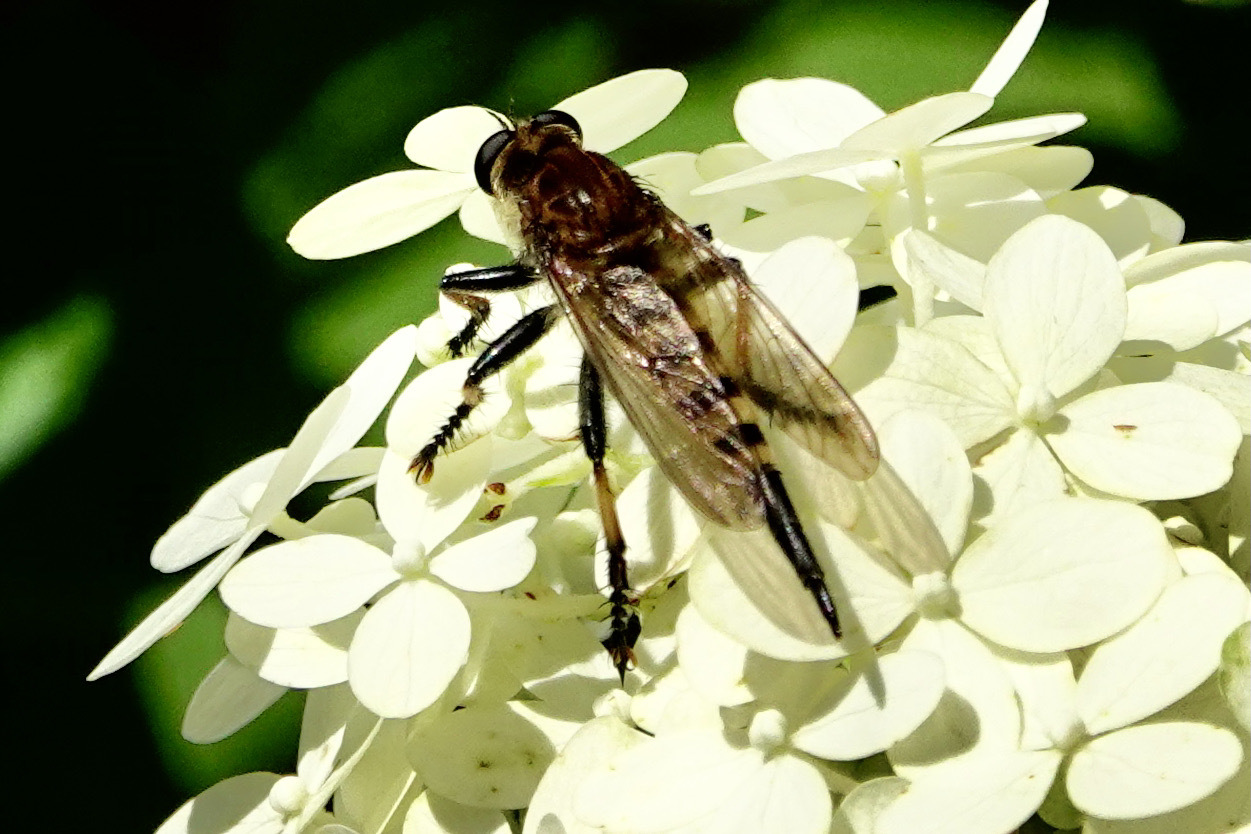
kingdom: Animalia
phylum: Arthropoda
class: Insecta
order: Diptera
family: Asilidae
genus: Promachus
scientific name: Promachus rufipes
